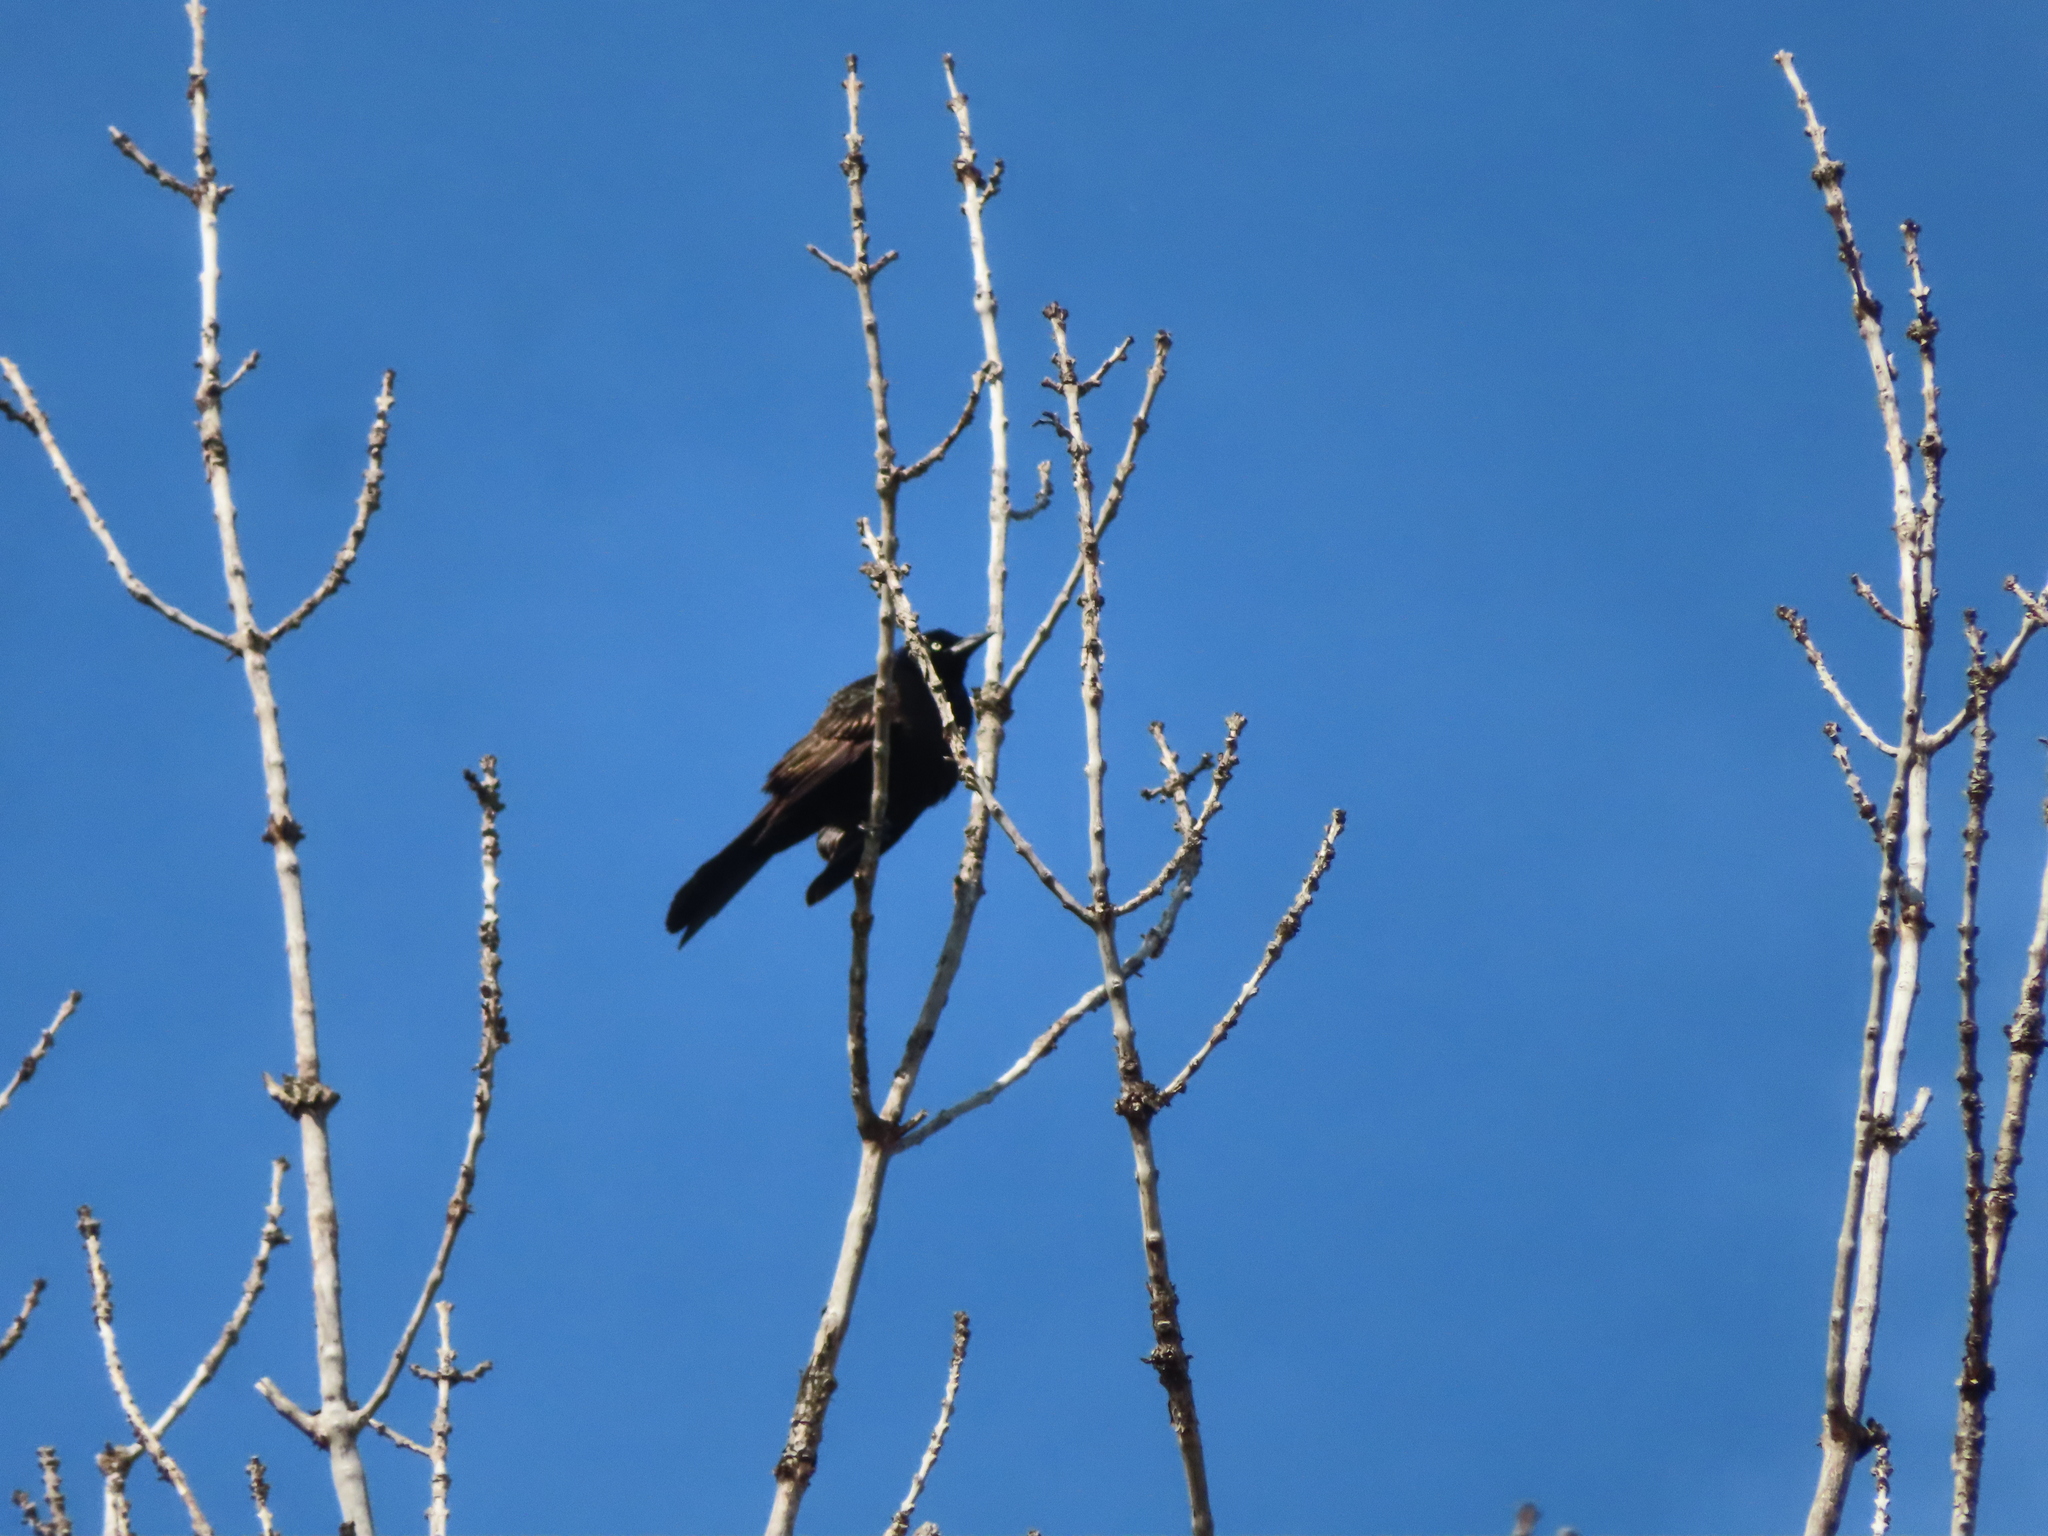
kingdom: Animalia
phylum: Chordata
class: Aves
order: Passeriformes
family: Icteridae
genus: Quiscalus
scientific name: Quiscalus quiscula
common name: Common grackle
